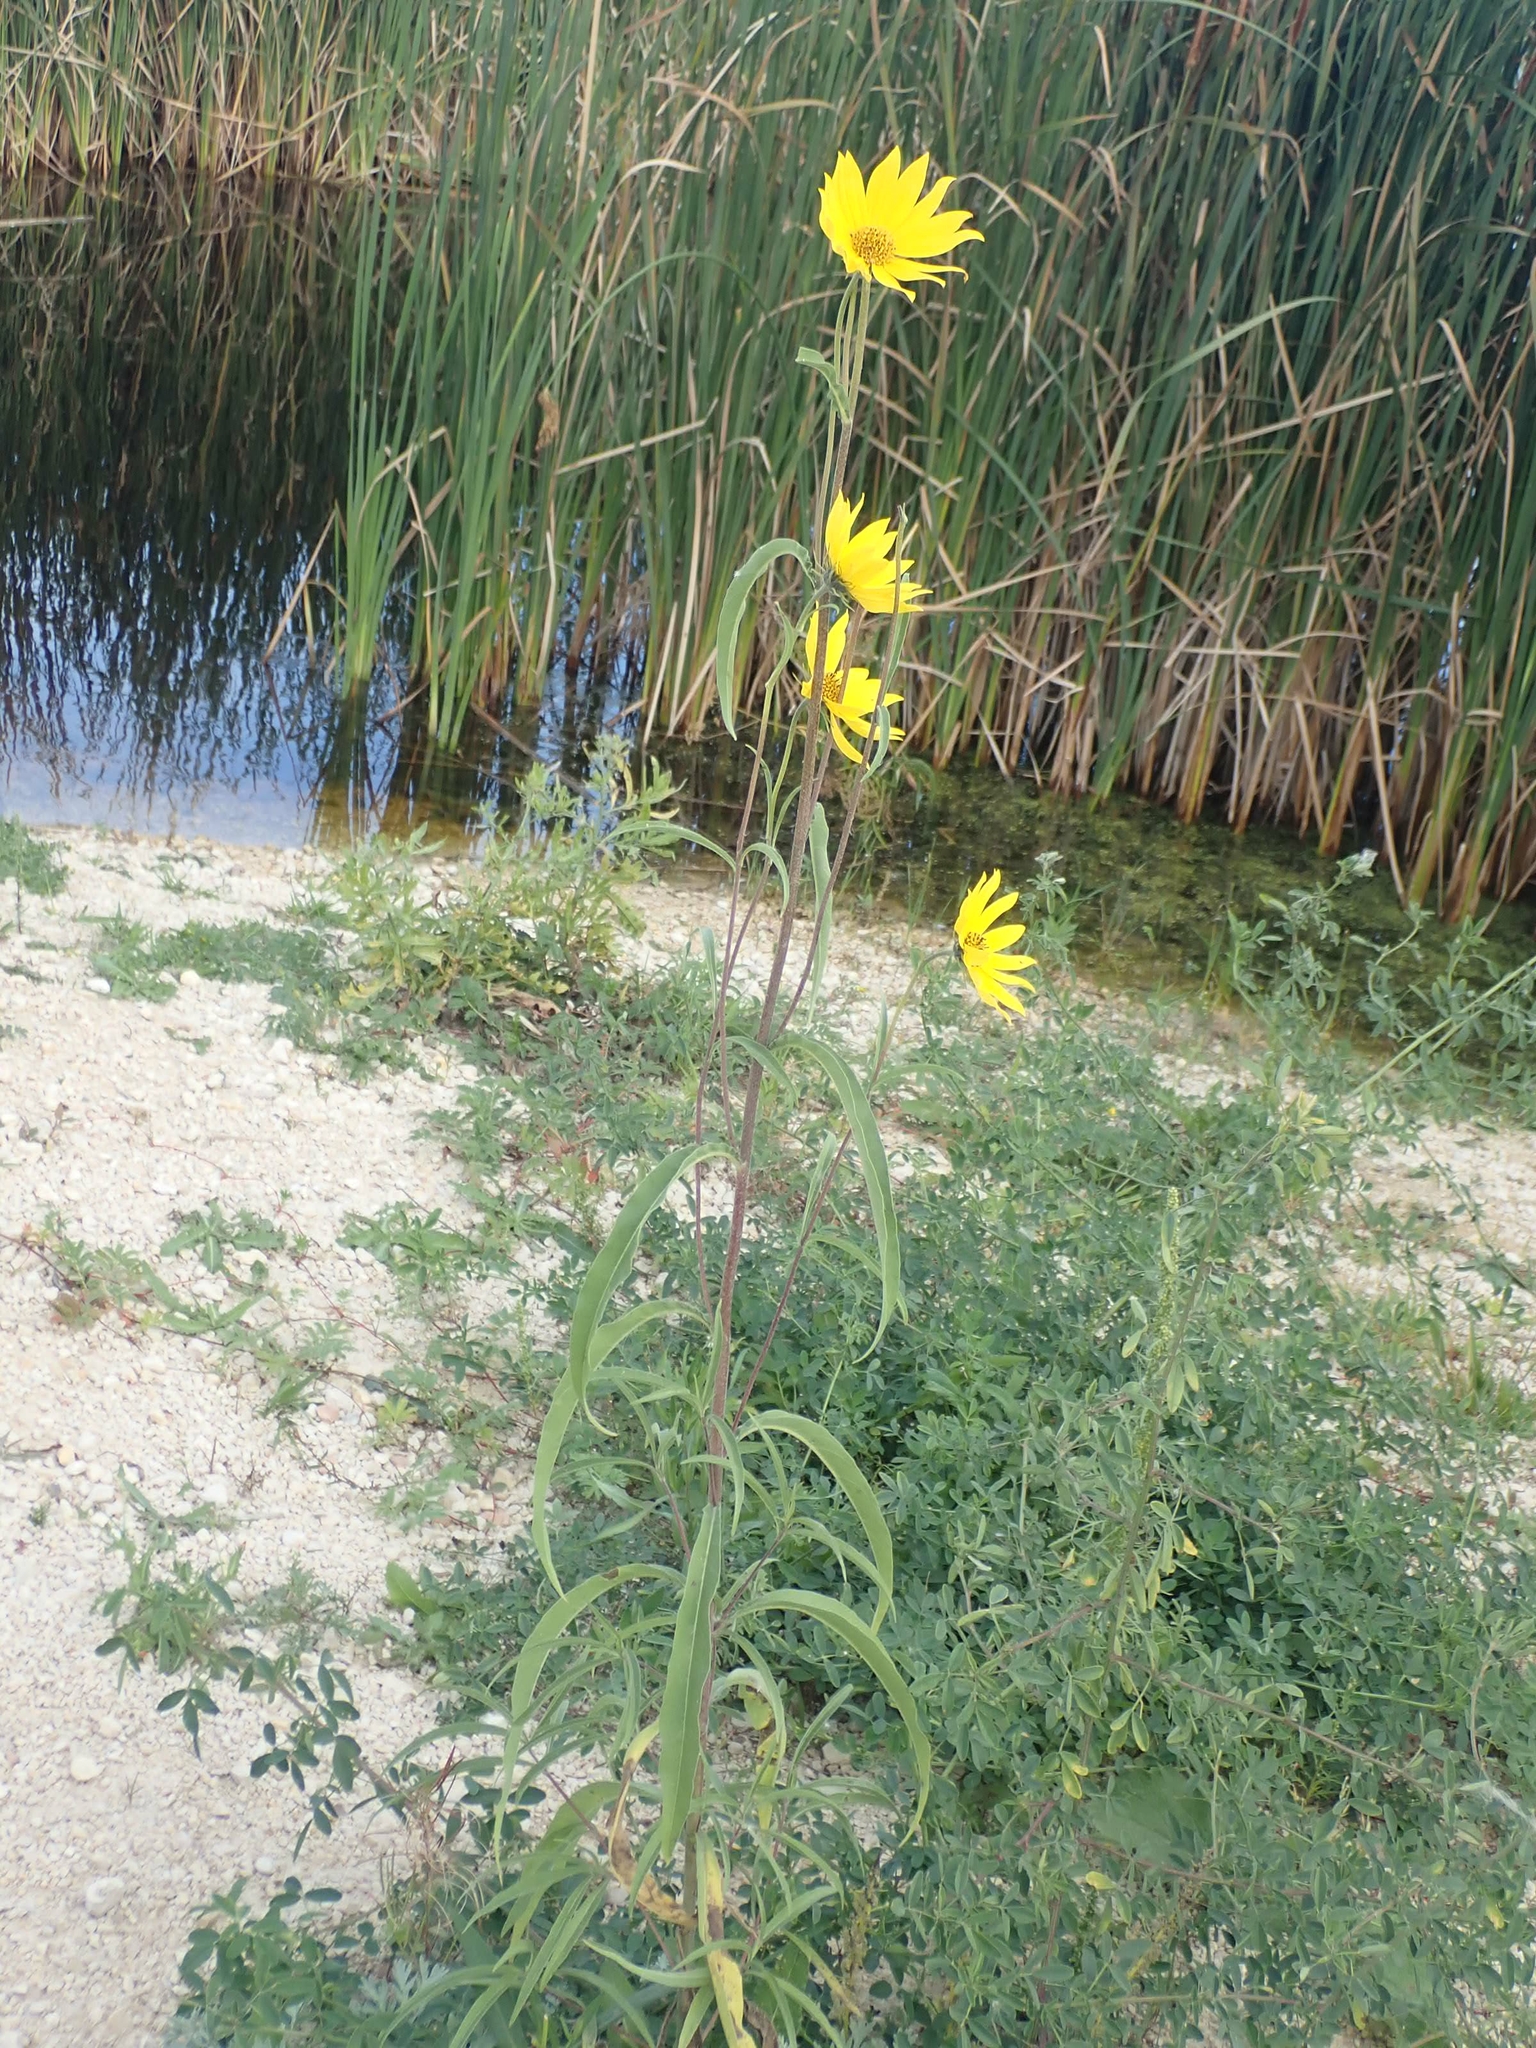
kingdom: Plantae
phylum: Tracheophyta
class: Magnoliopsida
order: Asterales
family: Asteraceae
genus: Helianthus
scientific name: Helianthus maximiliani
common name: Maximilian's sunflower
